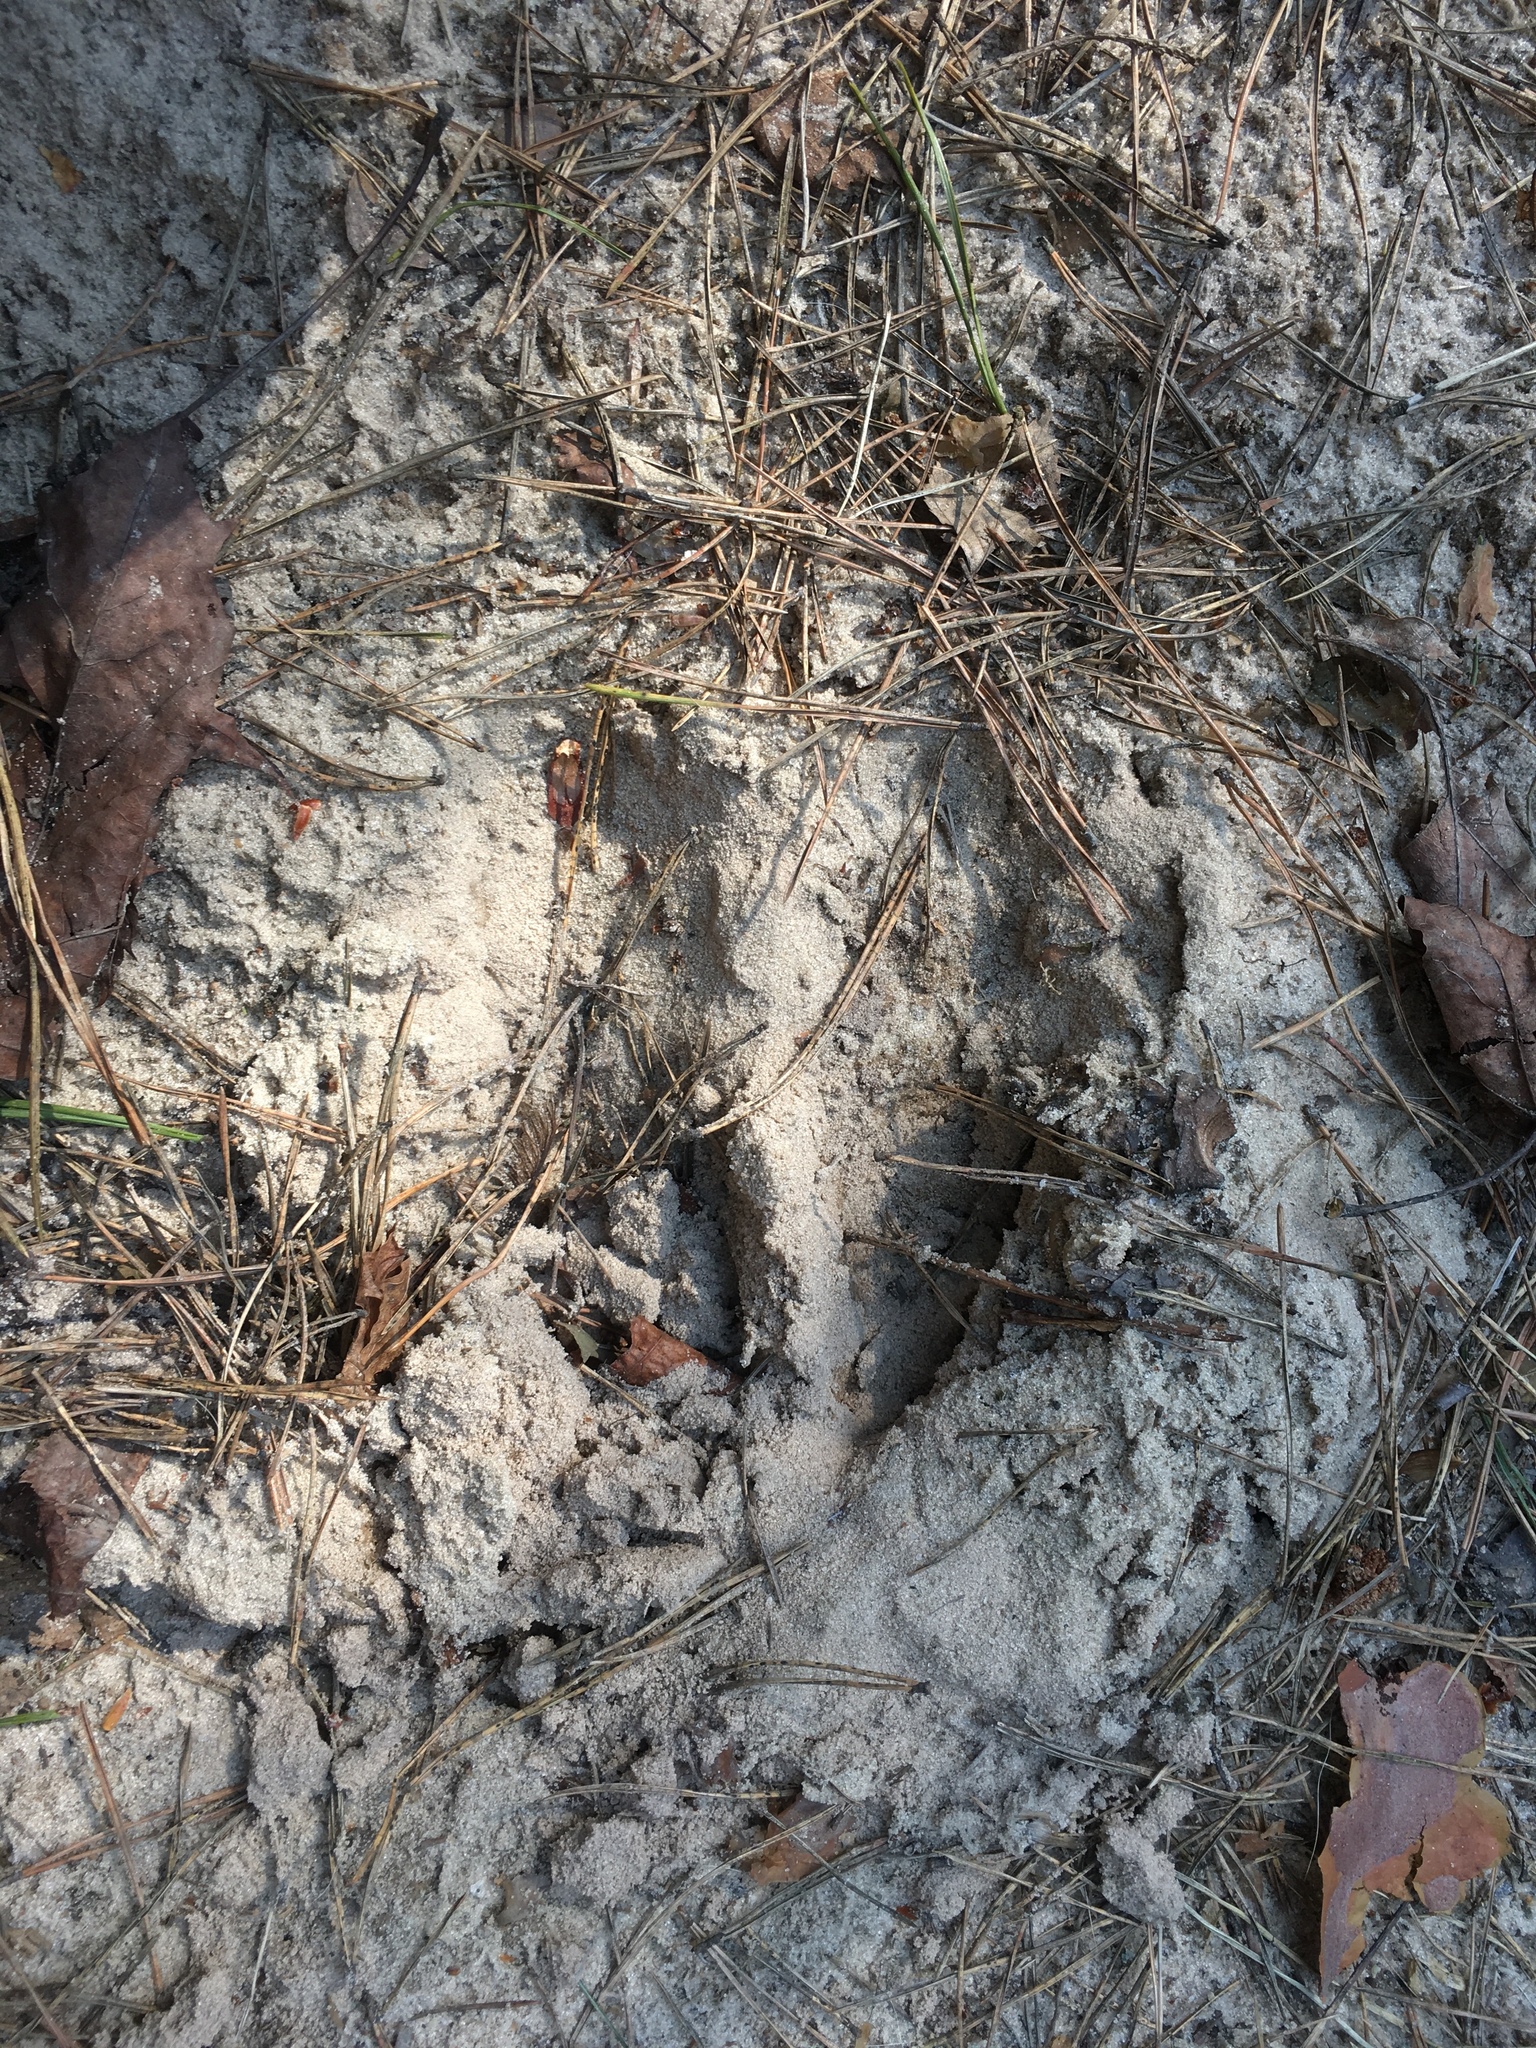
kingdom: Animalia
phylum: Chordata
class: Mammalia
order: Artiodactyla
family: Cervidae
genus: Alces
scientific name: Alces alces
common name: Moose
